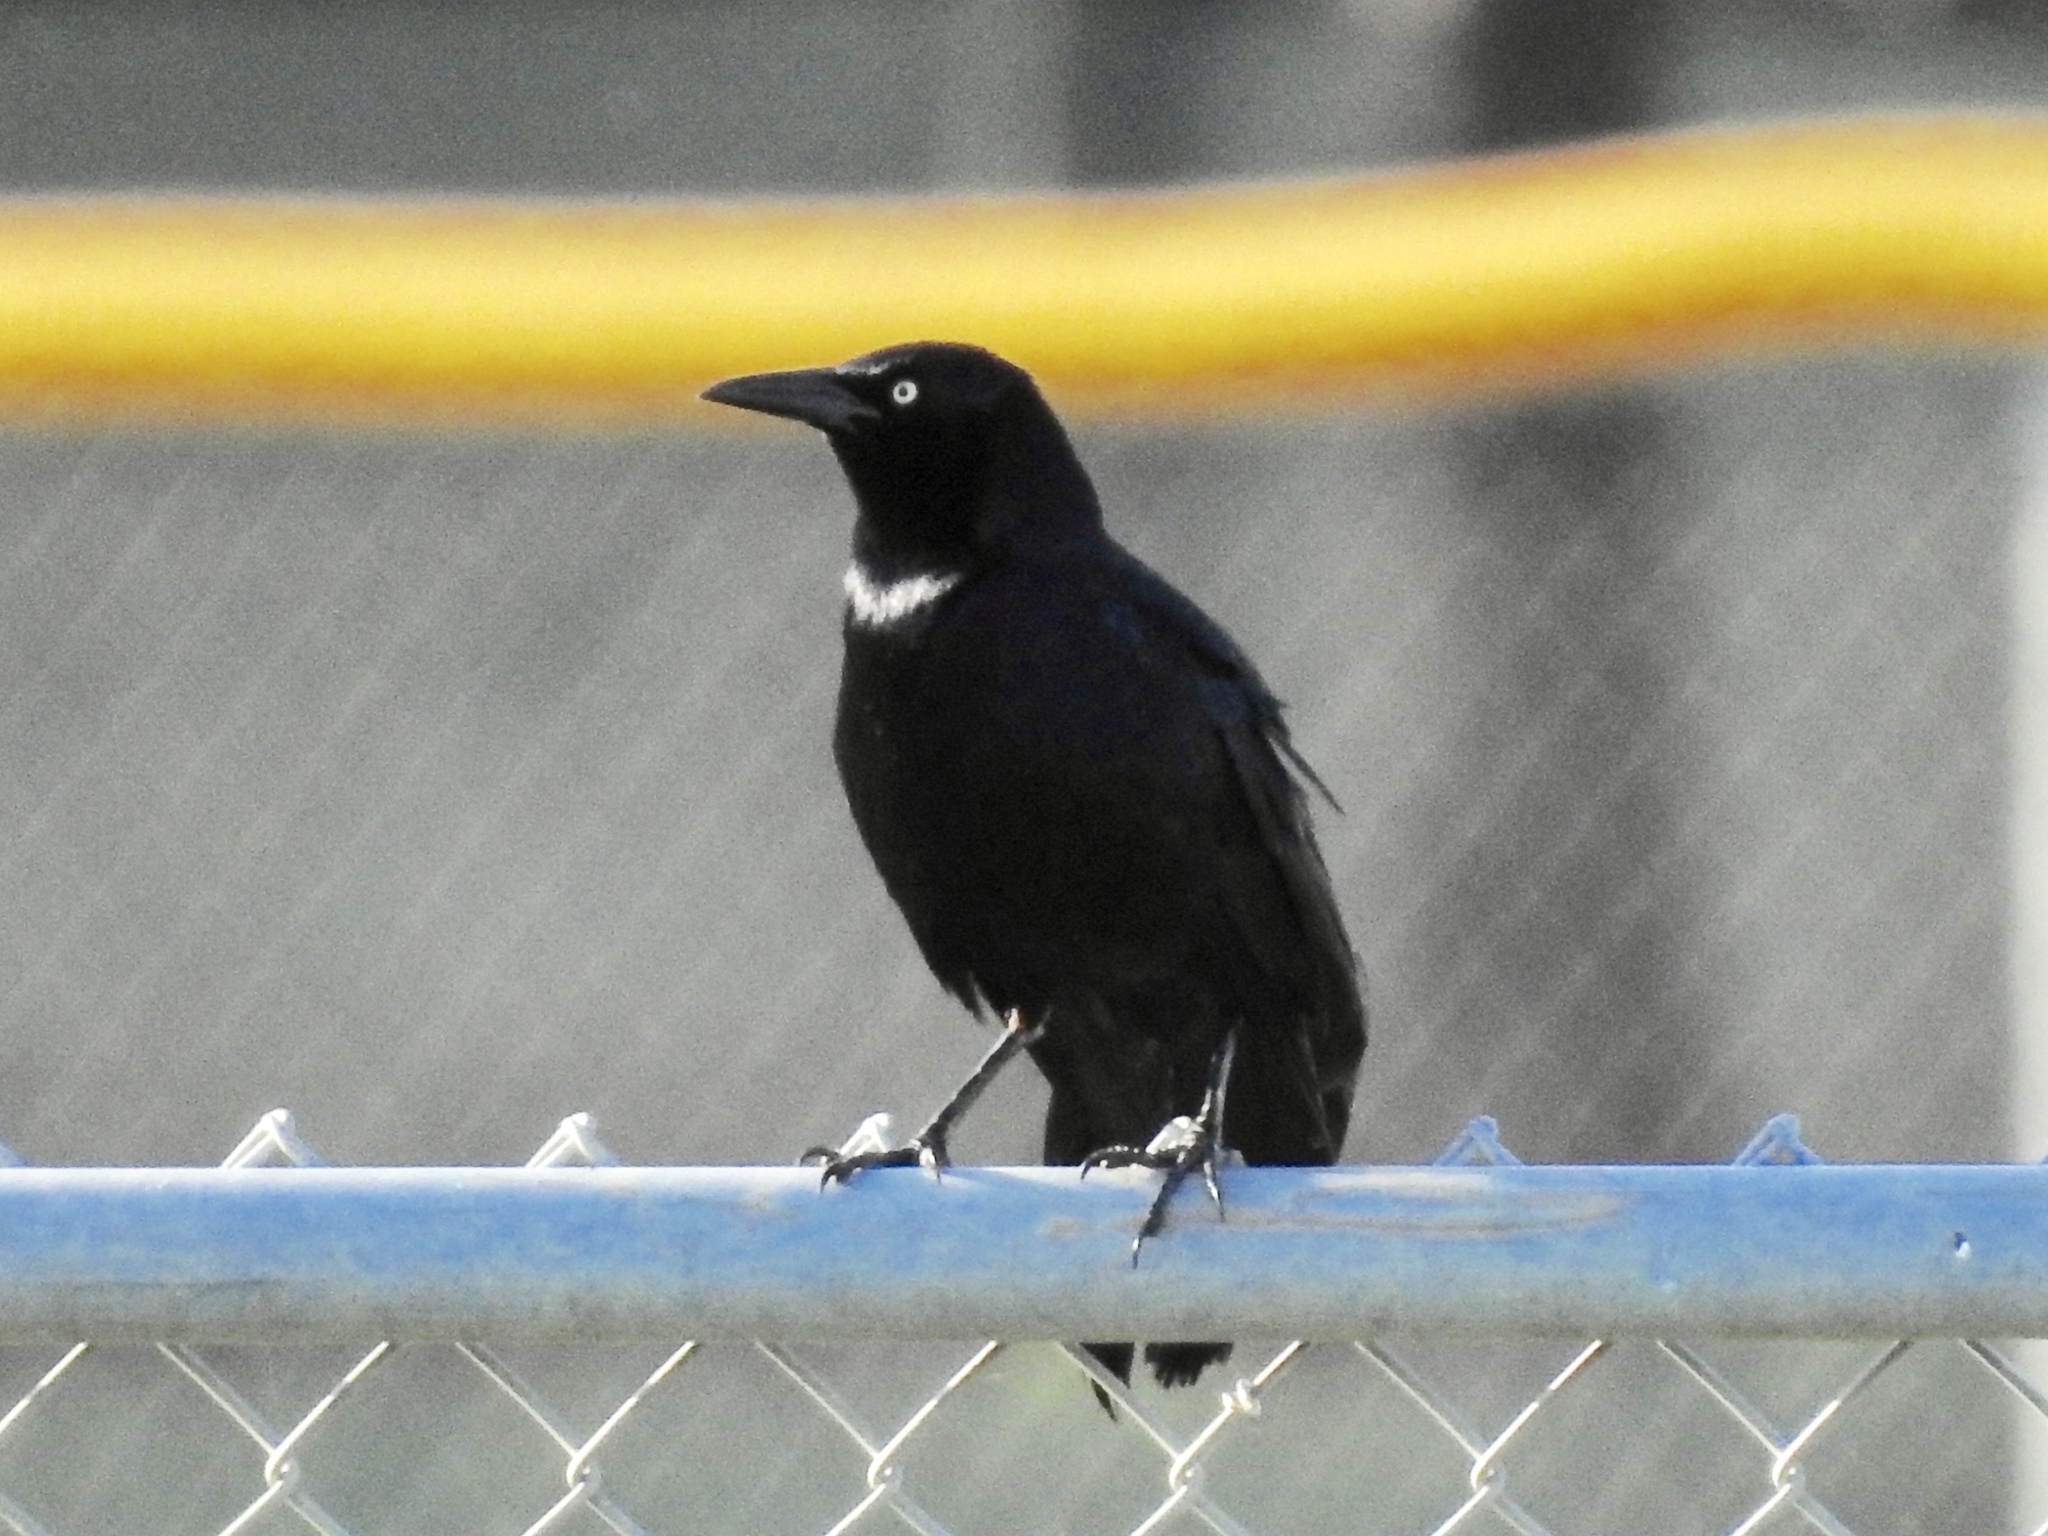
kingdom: Animalia
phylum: Chordata
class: Aves
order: Passeriformes
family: Icteridae
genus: Quiscalus
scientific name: Quiscalus mexicanus
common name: Great-tailed grackle
